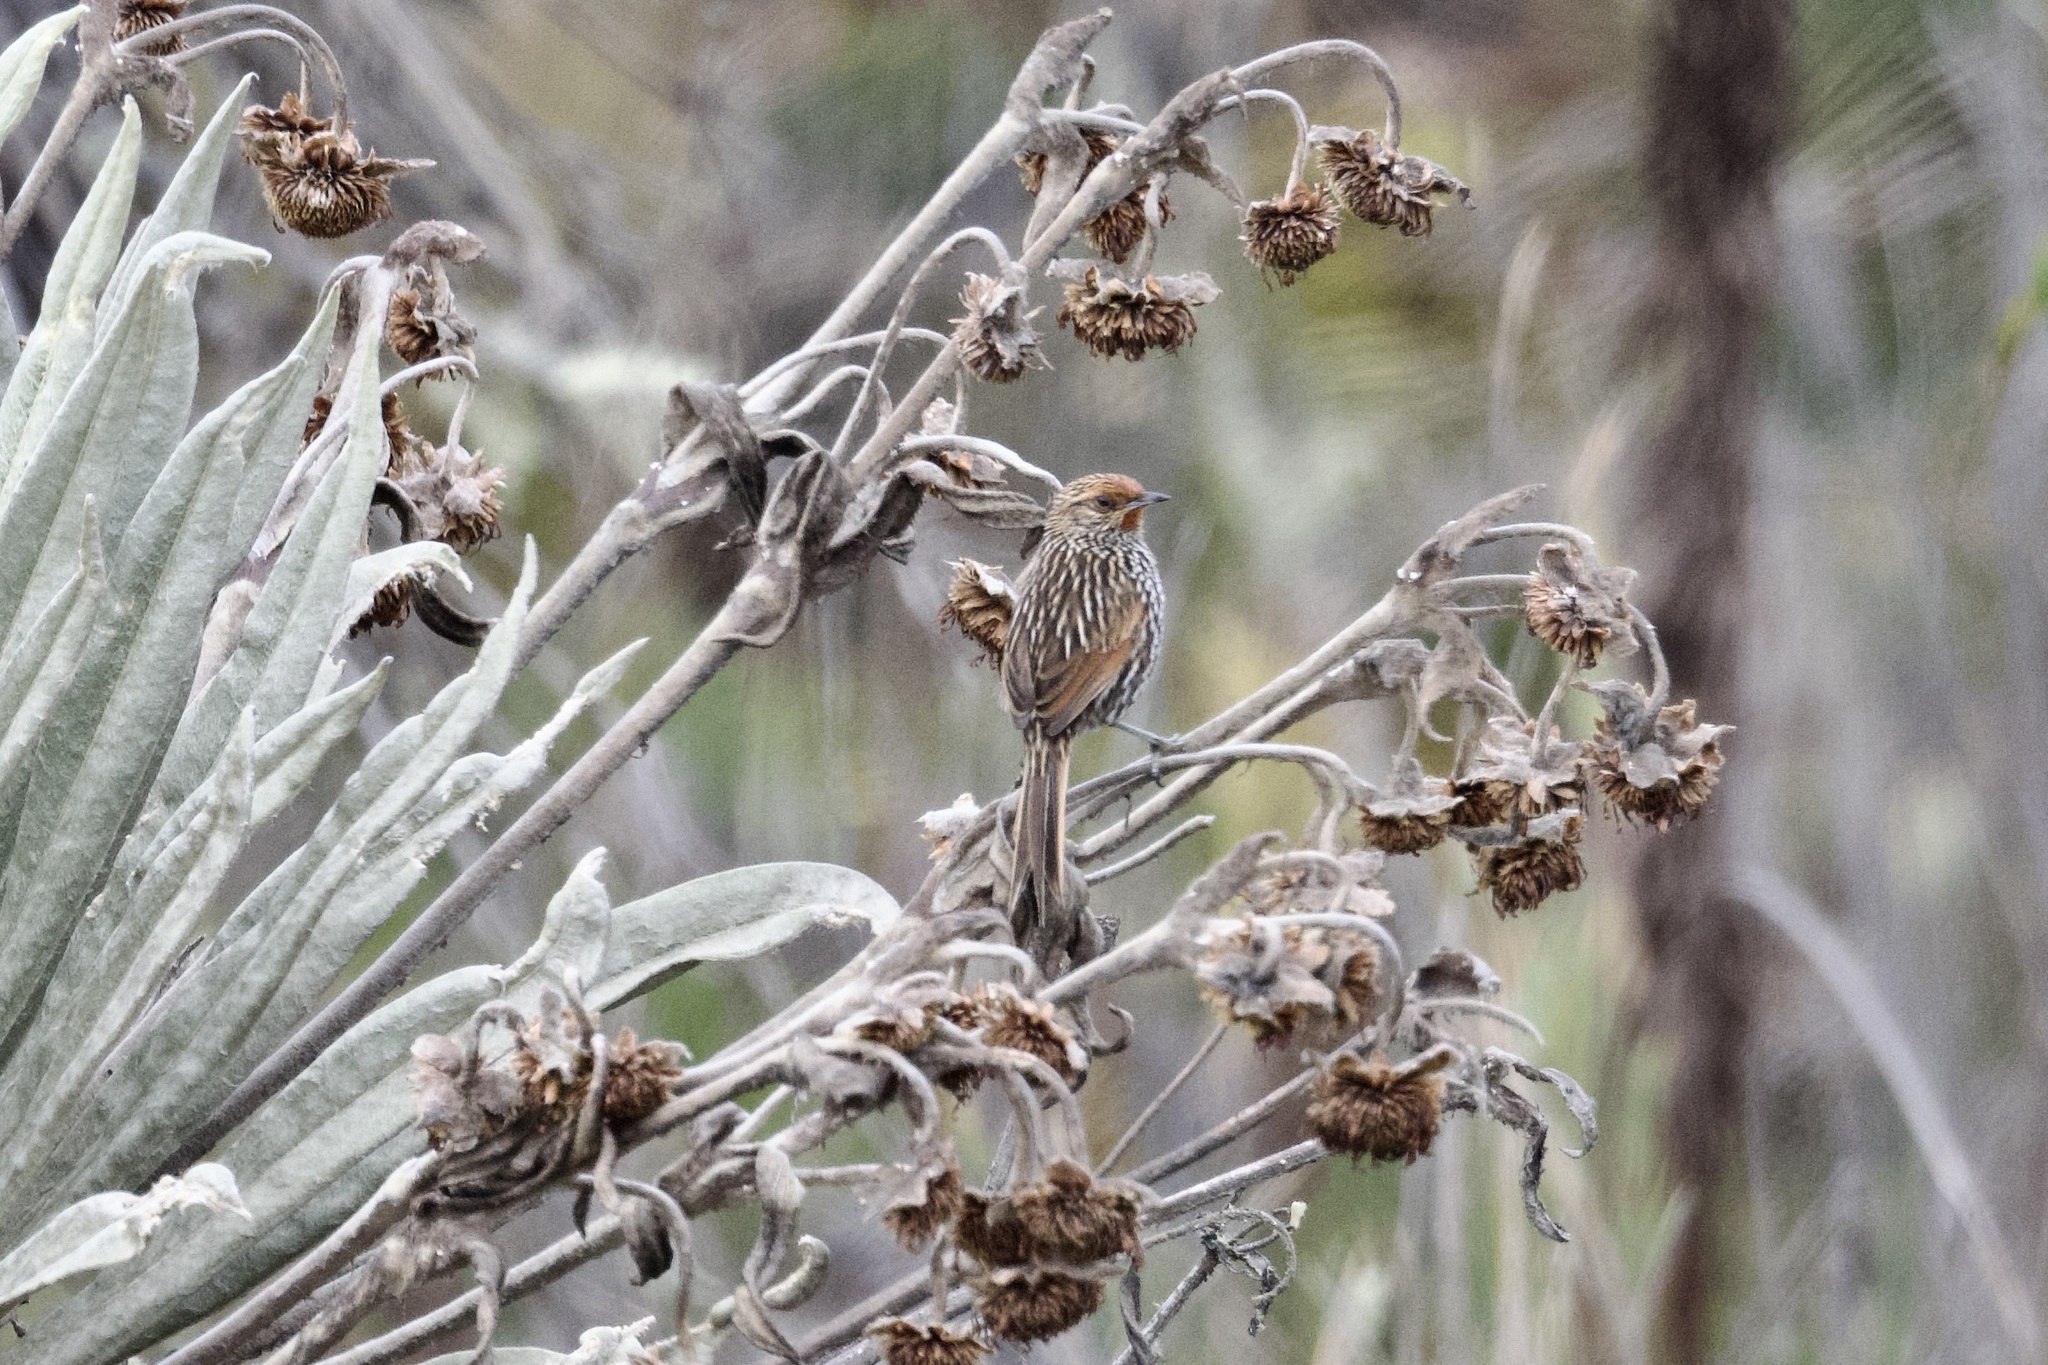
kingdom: Animalia
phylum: Chordata
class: Aves
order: Passeriformes
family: Furnariidae
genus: Asthenes
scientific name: Asthenes flammulata
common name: Many-striped canastero
